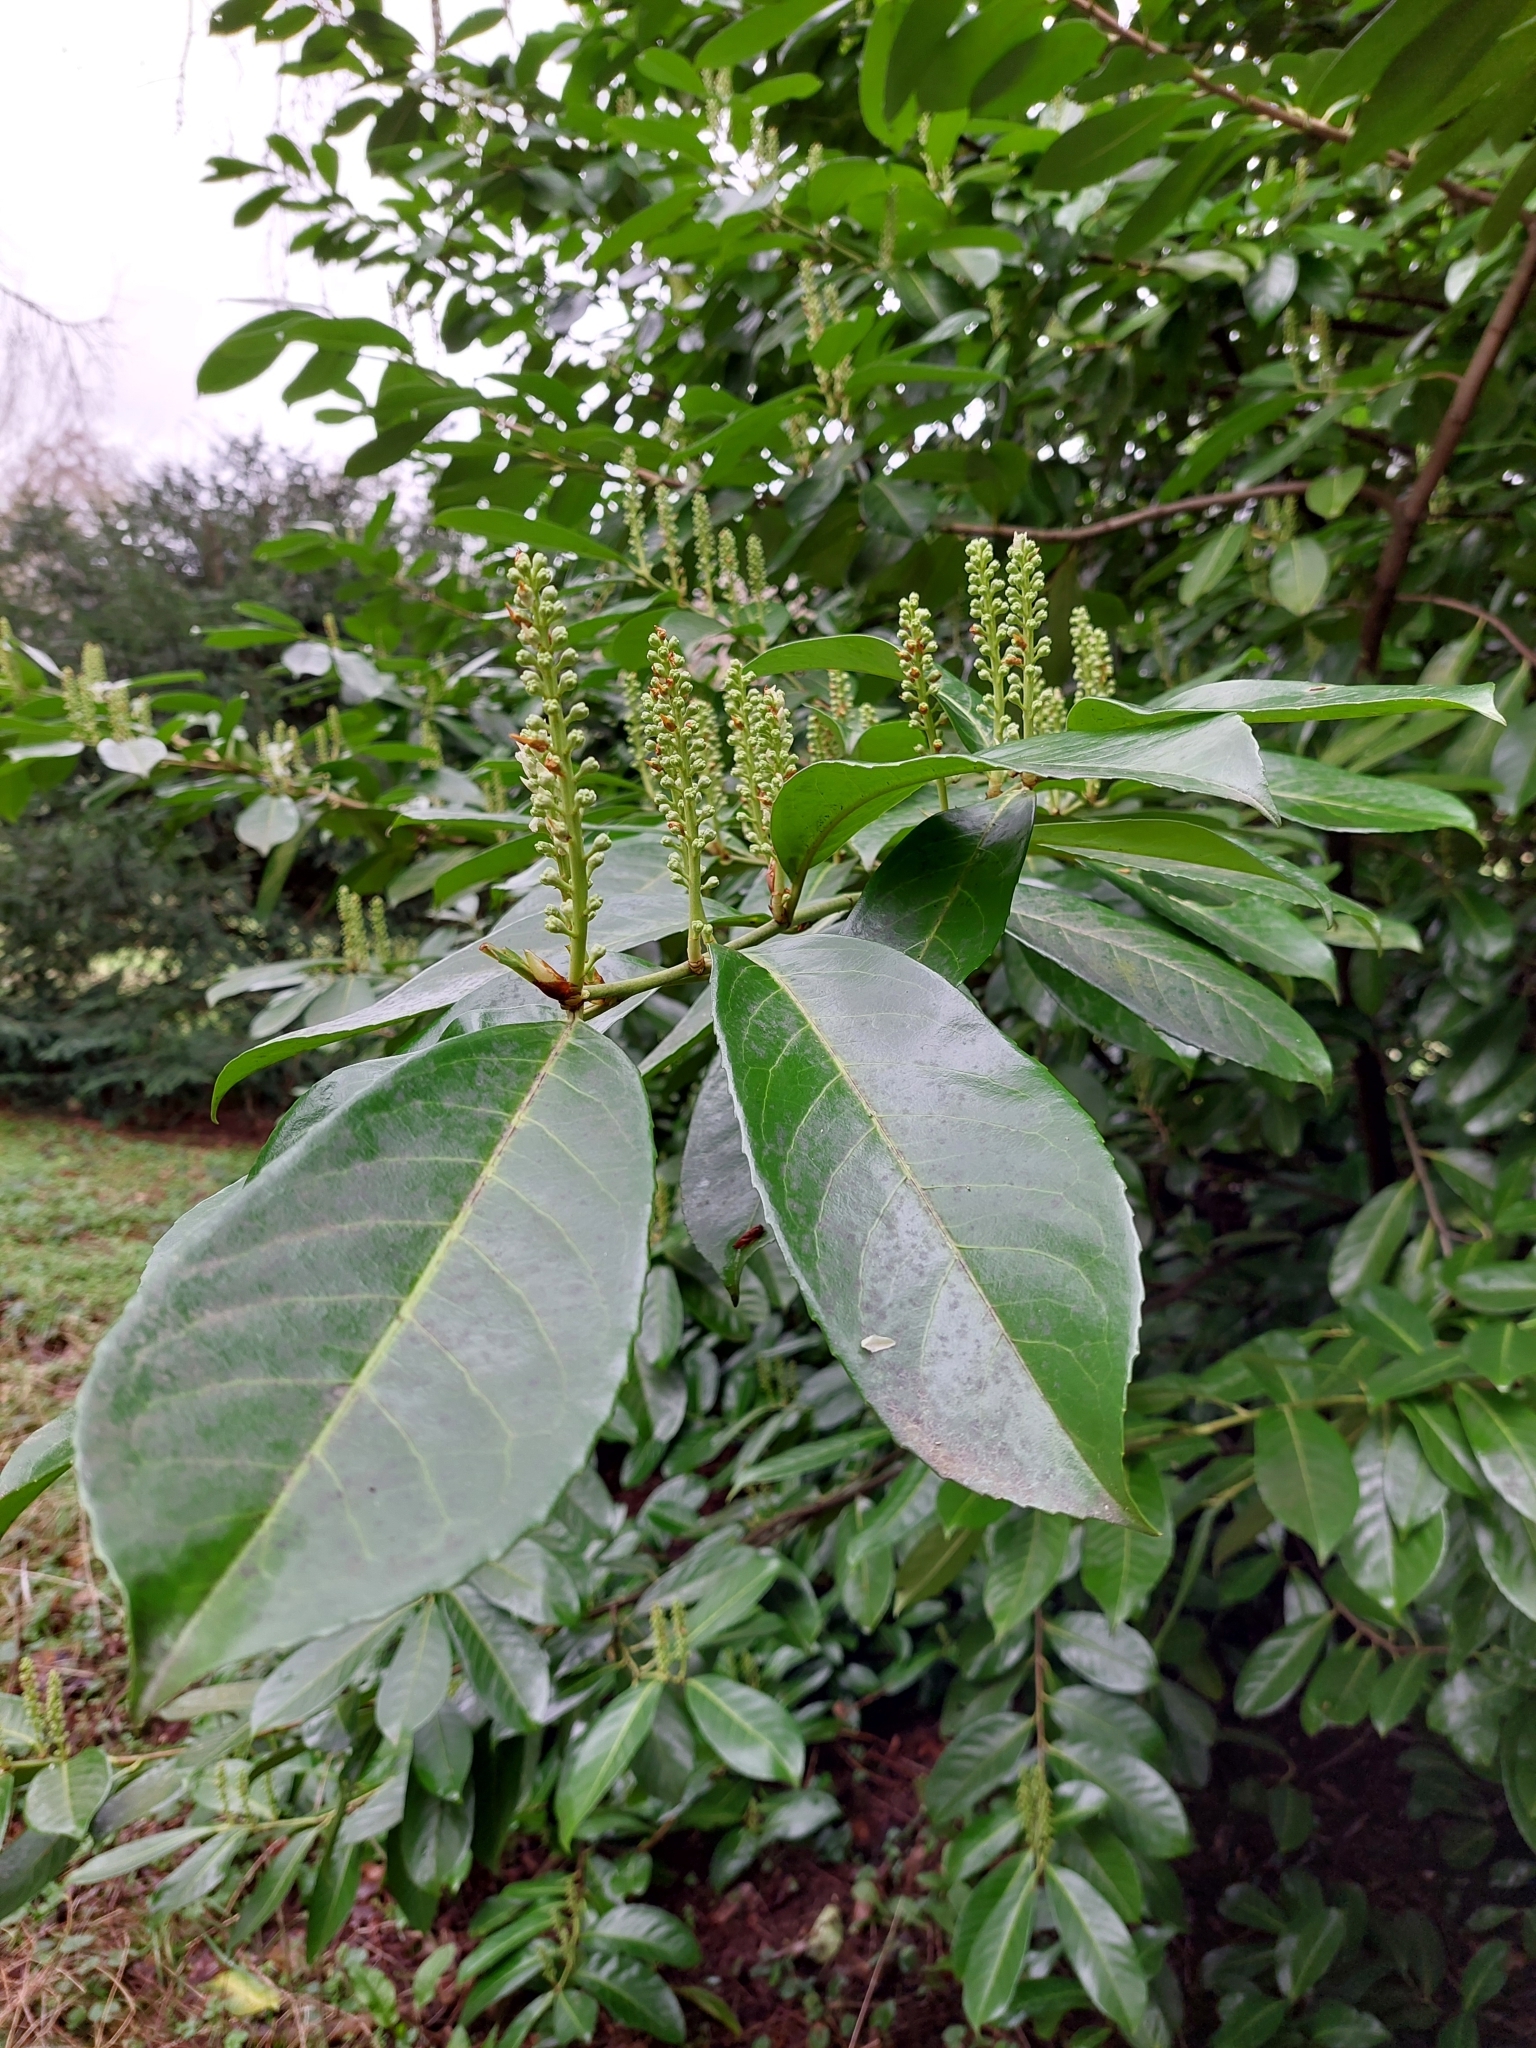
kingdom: Plantae
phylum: Tracheophyta
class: Magnoliopsida
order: Rosales
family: Rosaceae
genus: Prunus
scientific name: Prunus laurocerasus
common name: Cherry laurel
